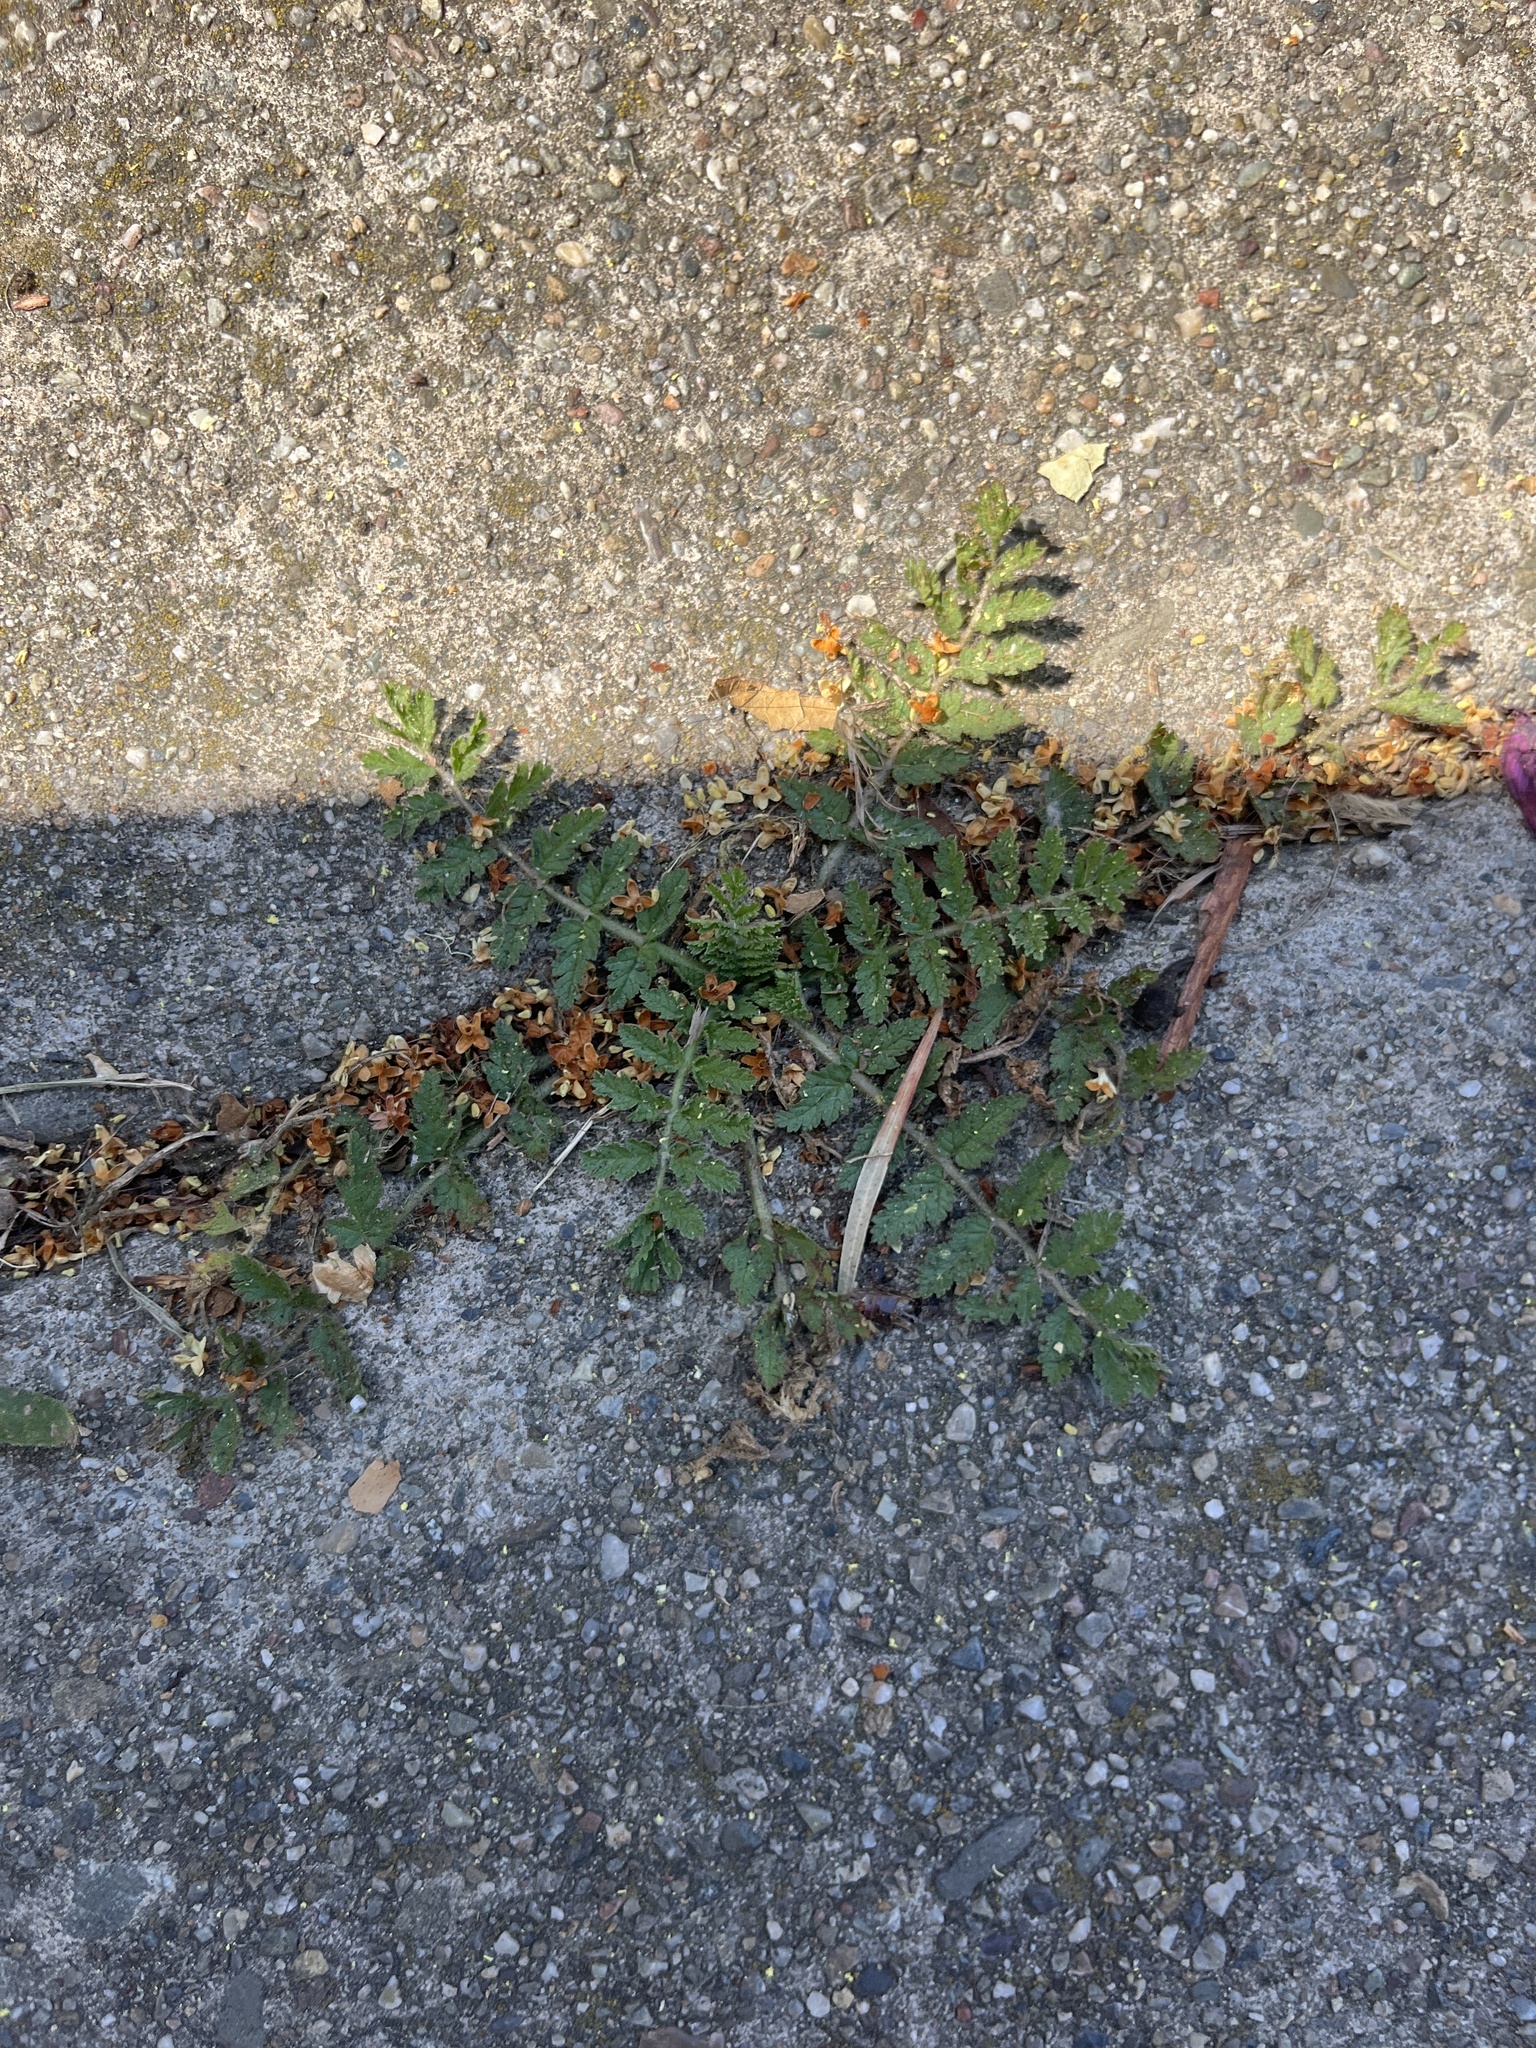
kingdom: Plantae
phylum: Tracheophyta
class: Magnoliopsida
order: Geraniales
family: Geraniaceae
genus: Erodium
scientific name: Erodium moschatum
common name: Musk stork's-bill
